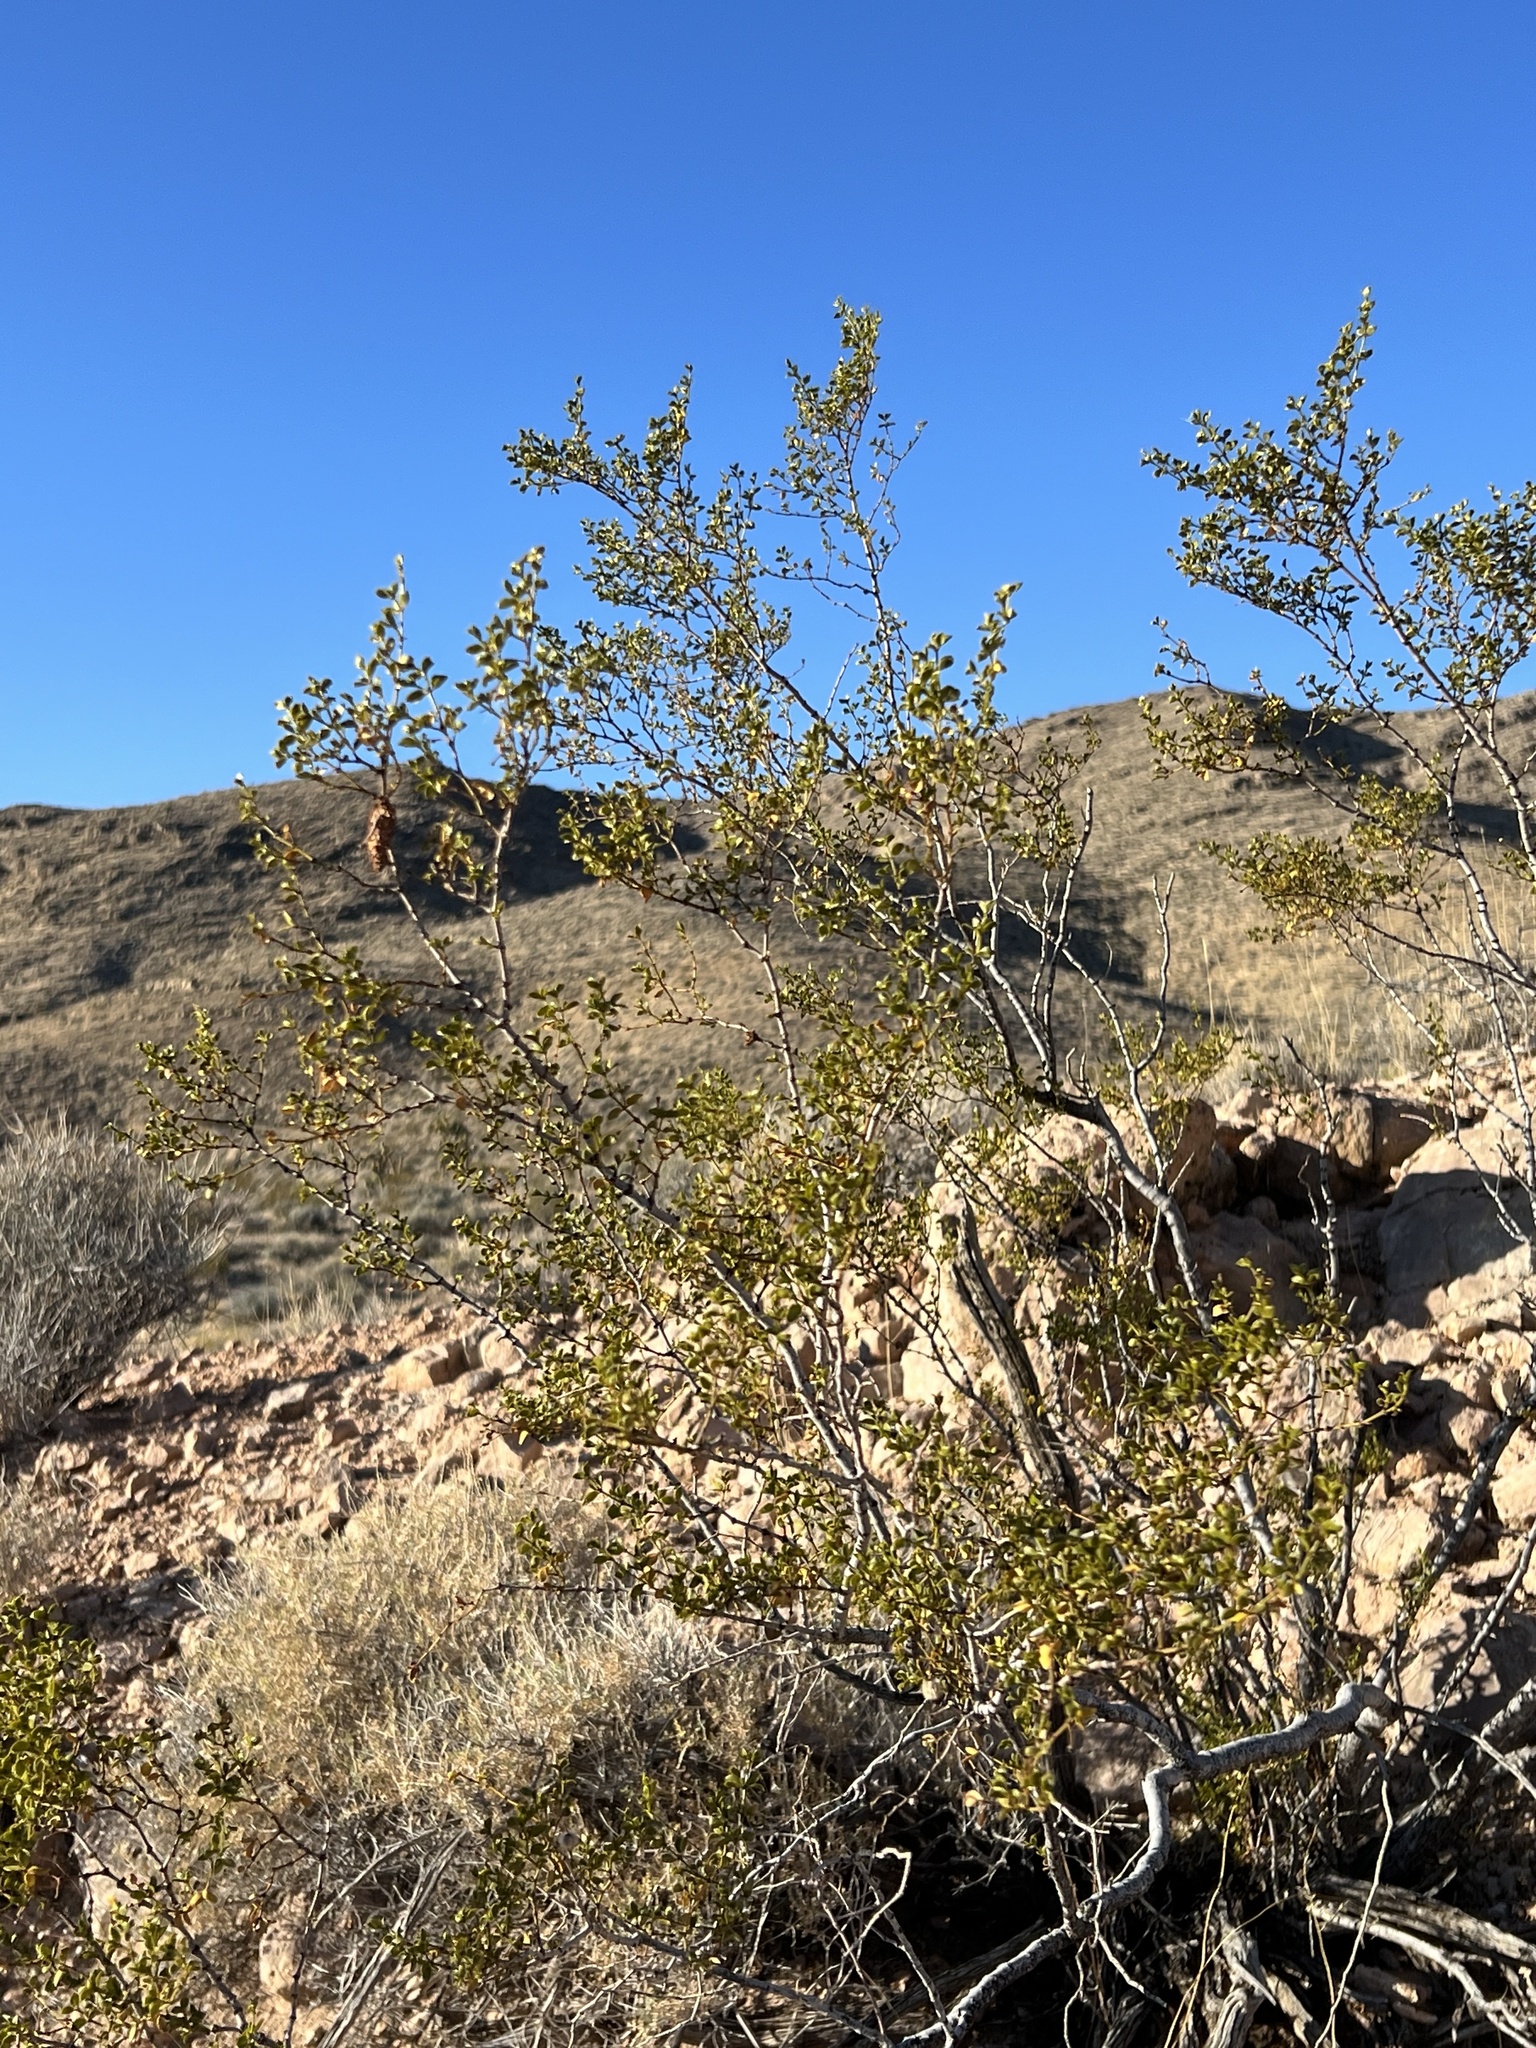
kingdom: Plantae
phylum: Tracheophyta
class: Magnoliopsida
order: Zygophyllales
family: Zygophyllaceae
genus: Larrea
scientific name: Larrea tridentata
